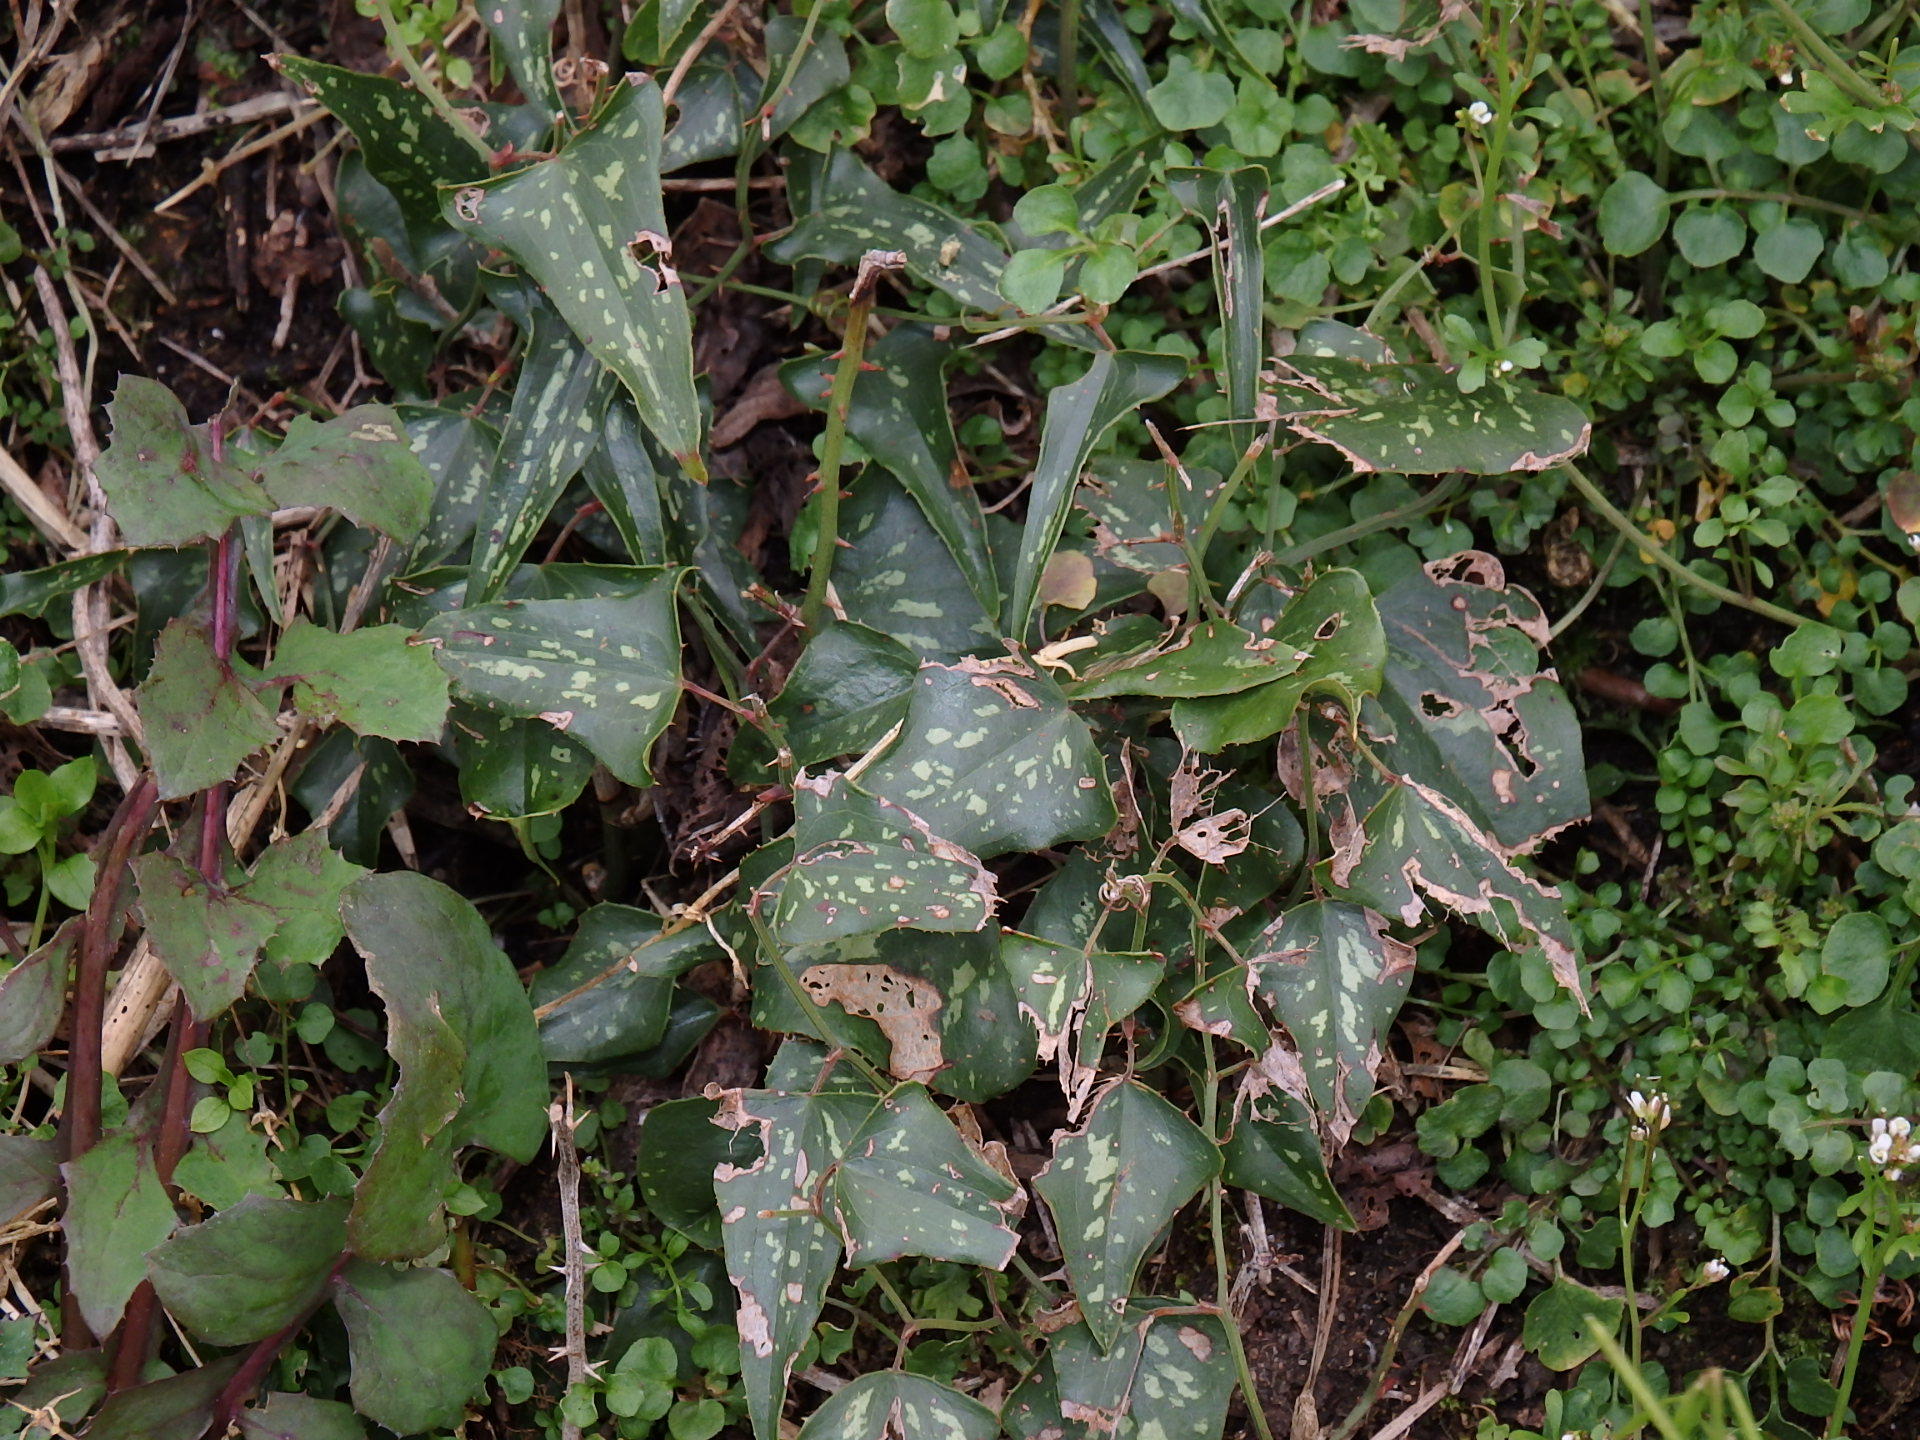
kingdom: Plantae
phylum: Tracheophyta
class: Liliopsida
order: Liliales
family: Smilacaceae
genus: Smilax
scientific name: Smilax aspera
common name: Common smilax
